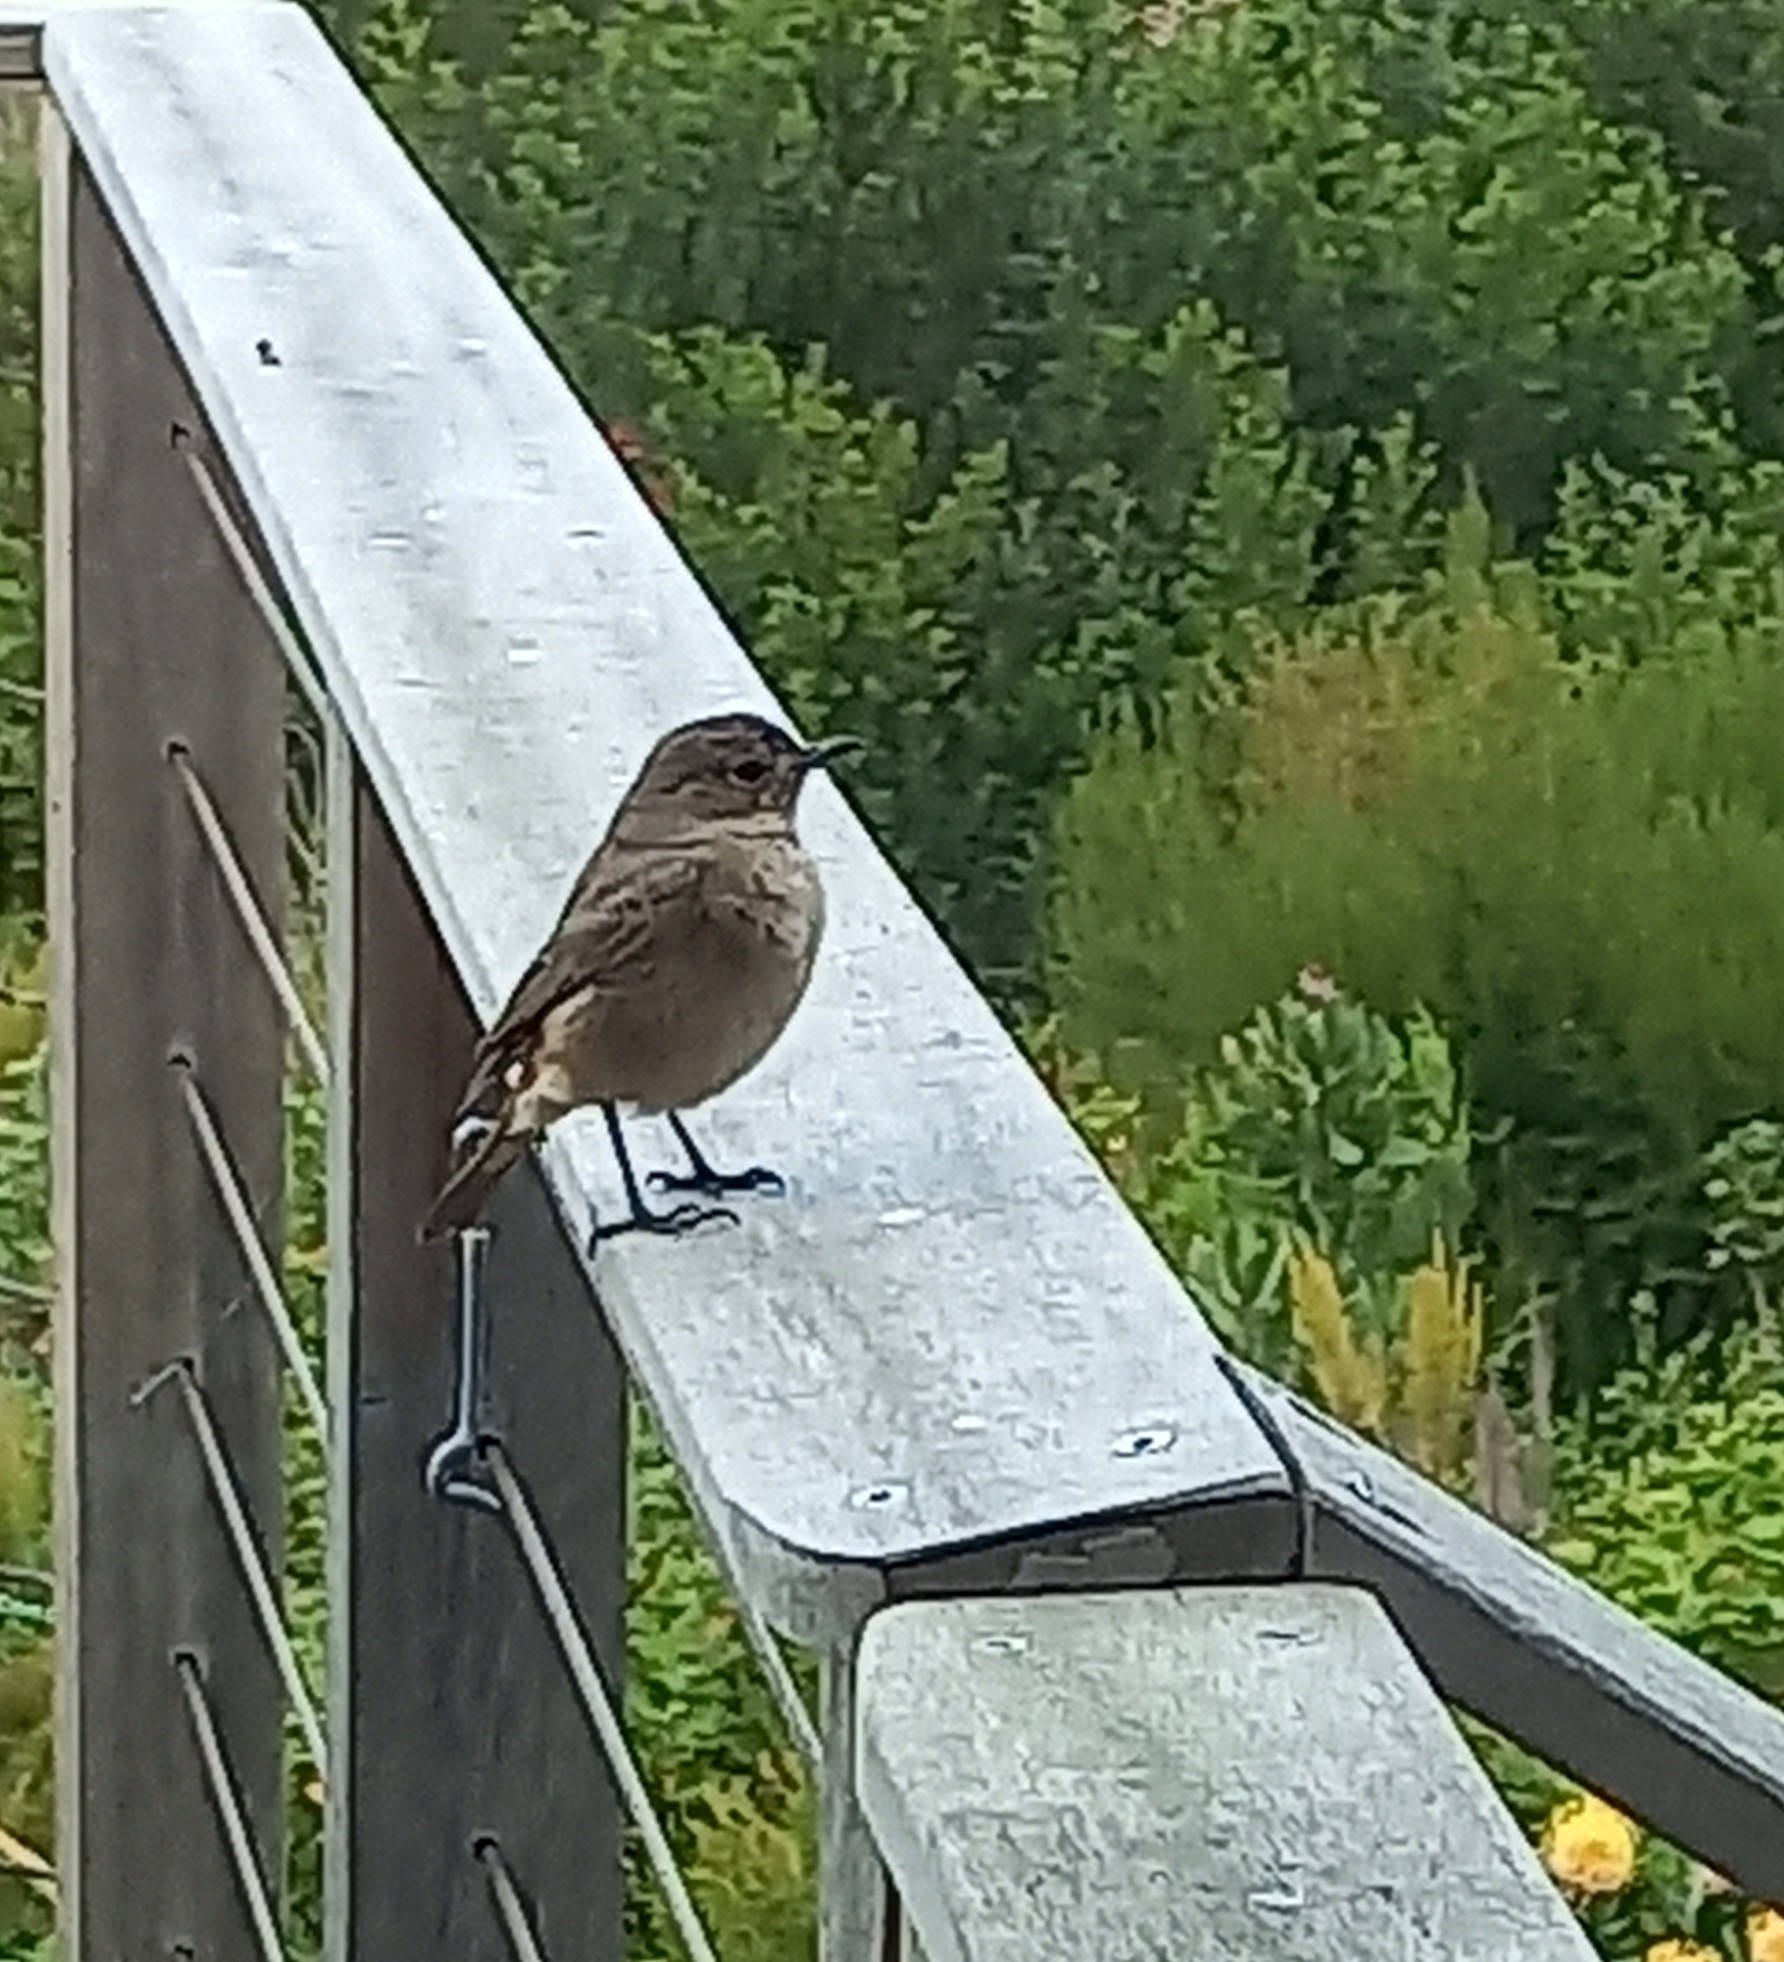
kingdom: Animalia
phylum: Chordata
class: Aves
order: Passeriformes
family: Muscicapidae
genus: Oenanthe
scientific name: Oenanthe familiaris
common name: Familiar chat
